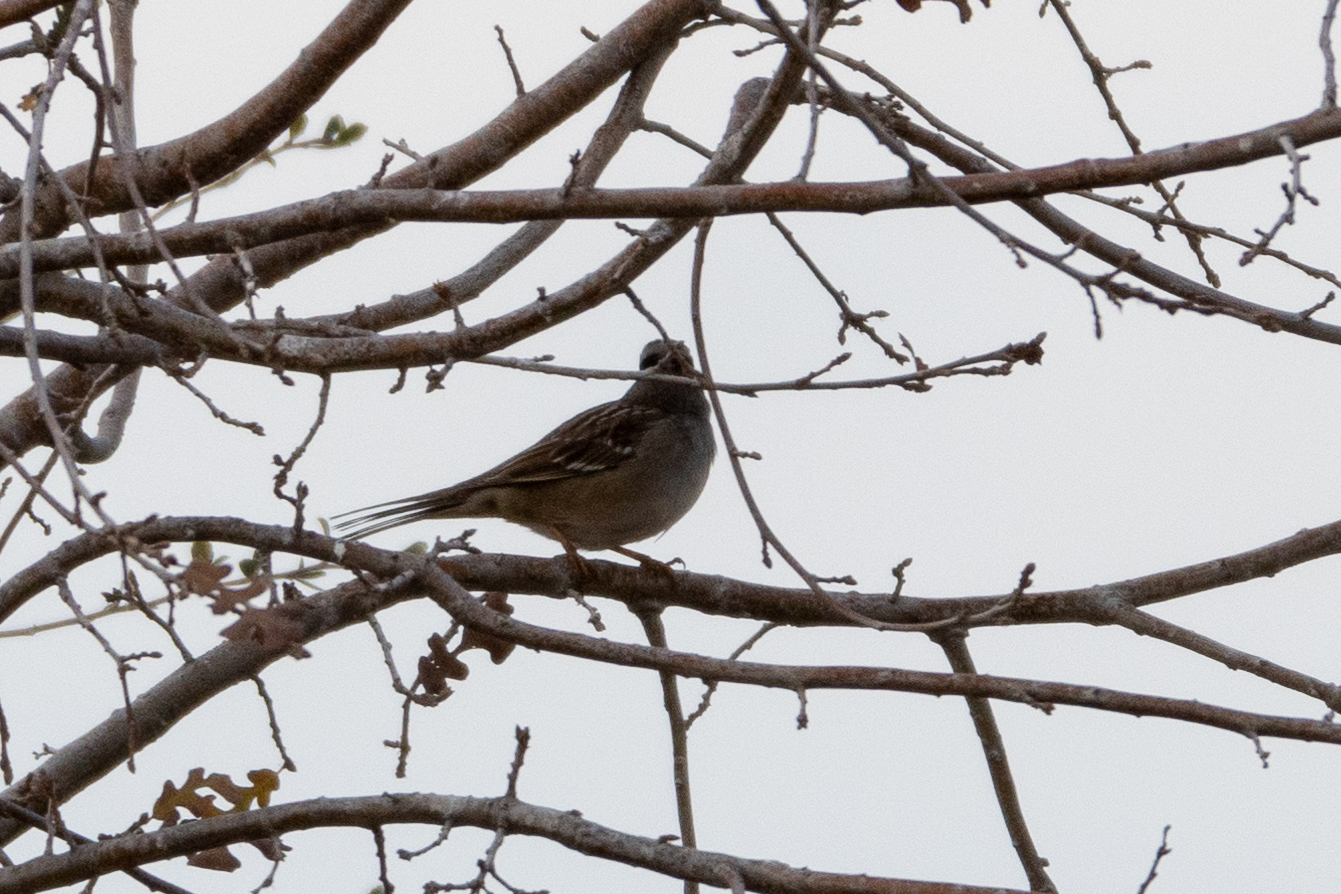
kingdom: Animalia
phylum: Chordata
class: Aves
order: Passeriformes
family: Passerellidae
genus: Zonotrichia
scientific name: Zonotrichia leucophrys
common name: White-crowned sparrow
